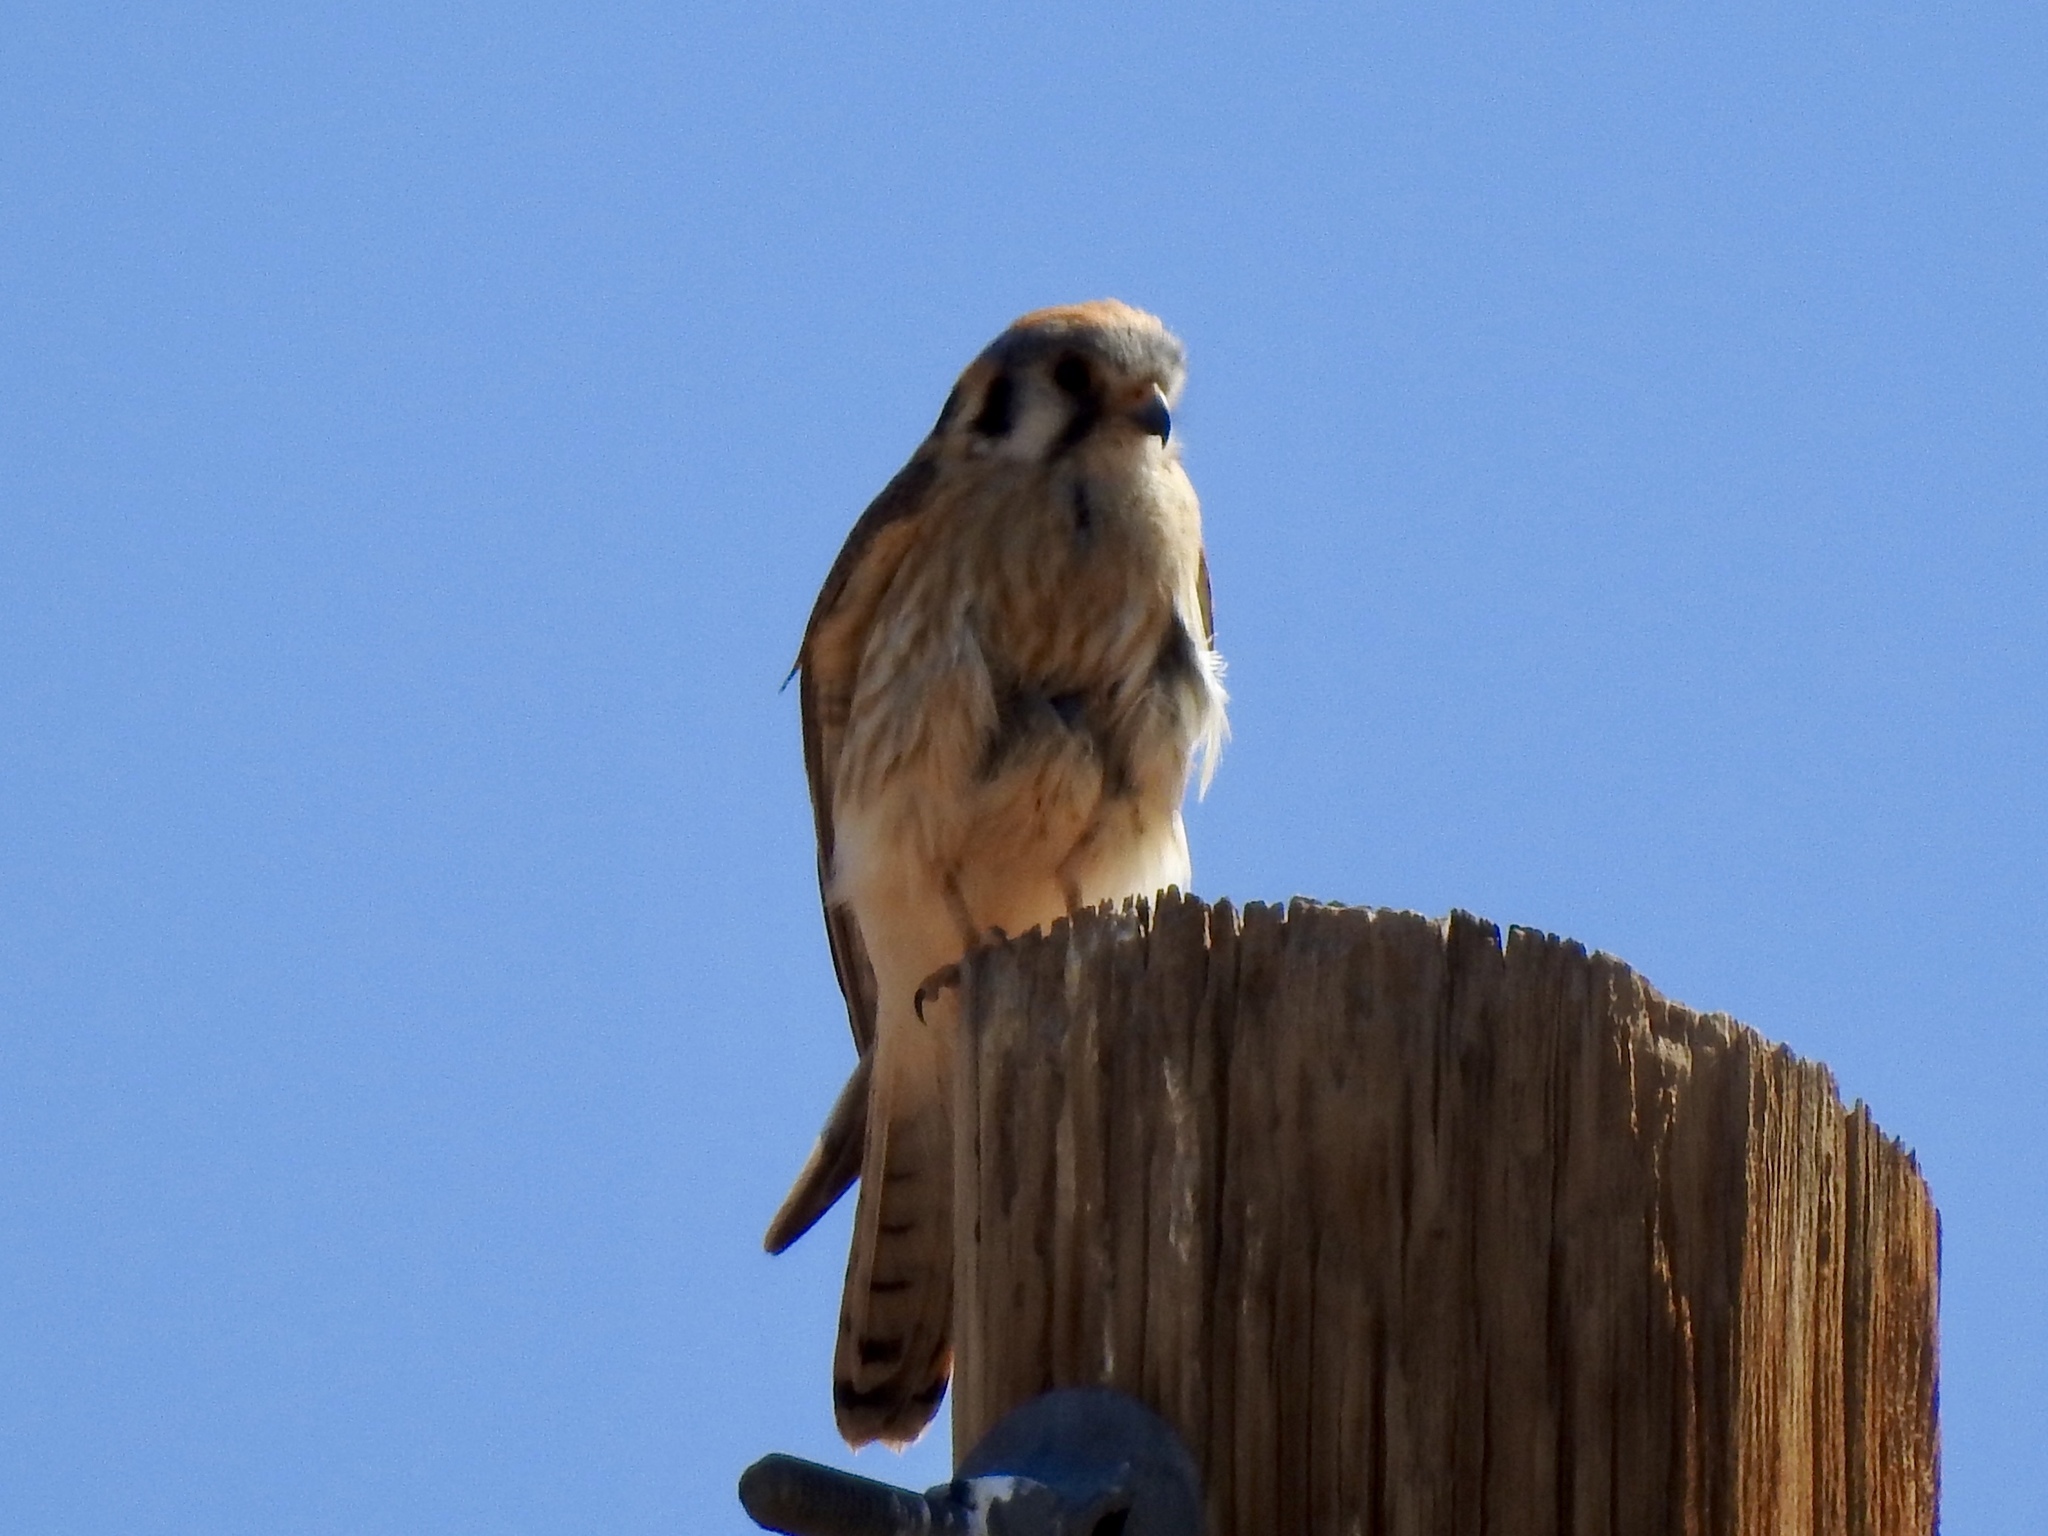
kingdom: Animalia
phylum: Chordata
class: Aves
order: Falconiformes
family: Falconidae
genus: Falco
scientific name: Falco sparverius
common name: American kestrel
